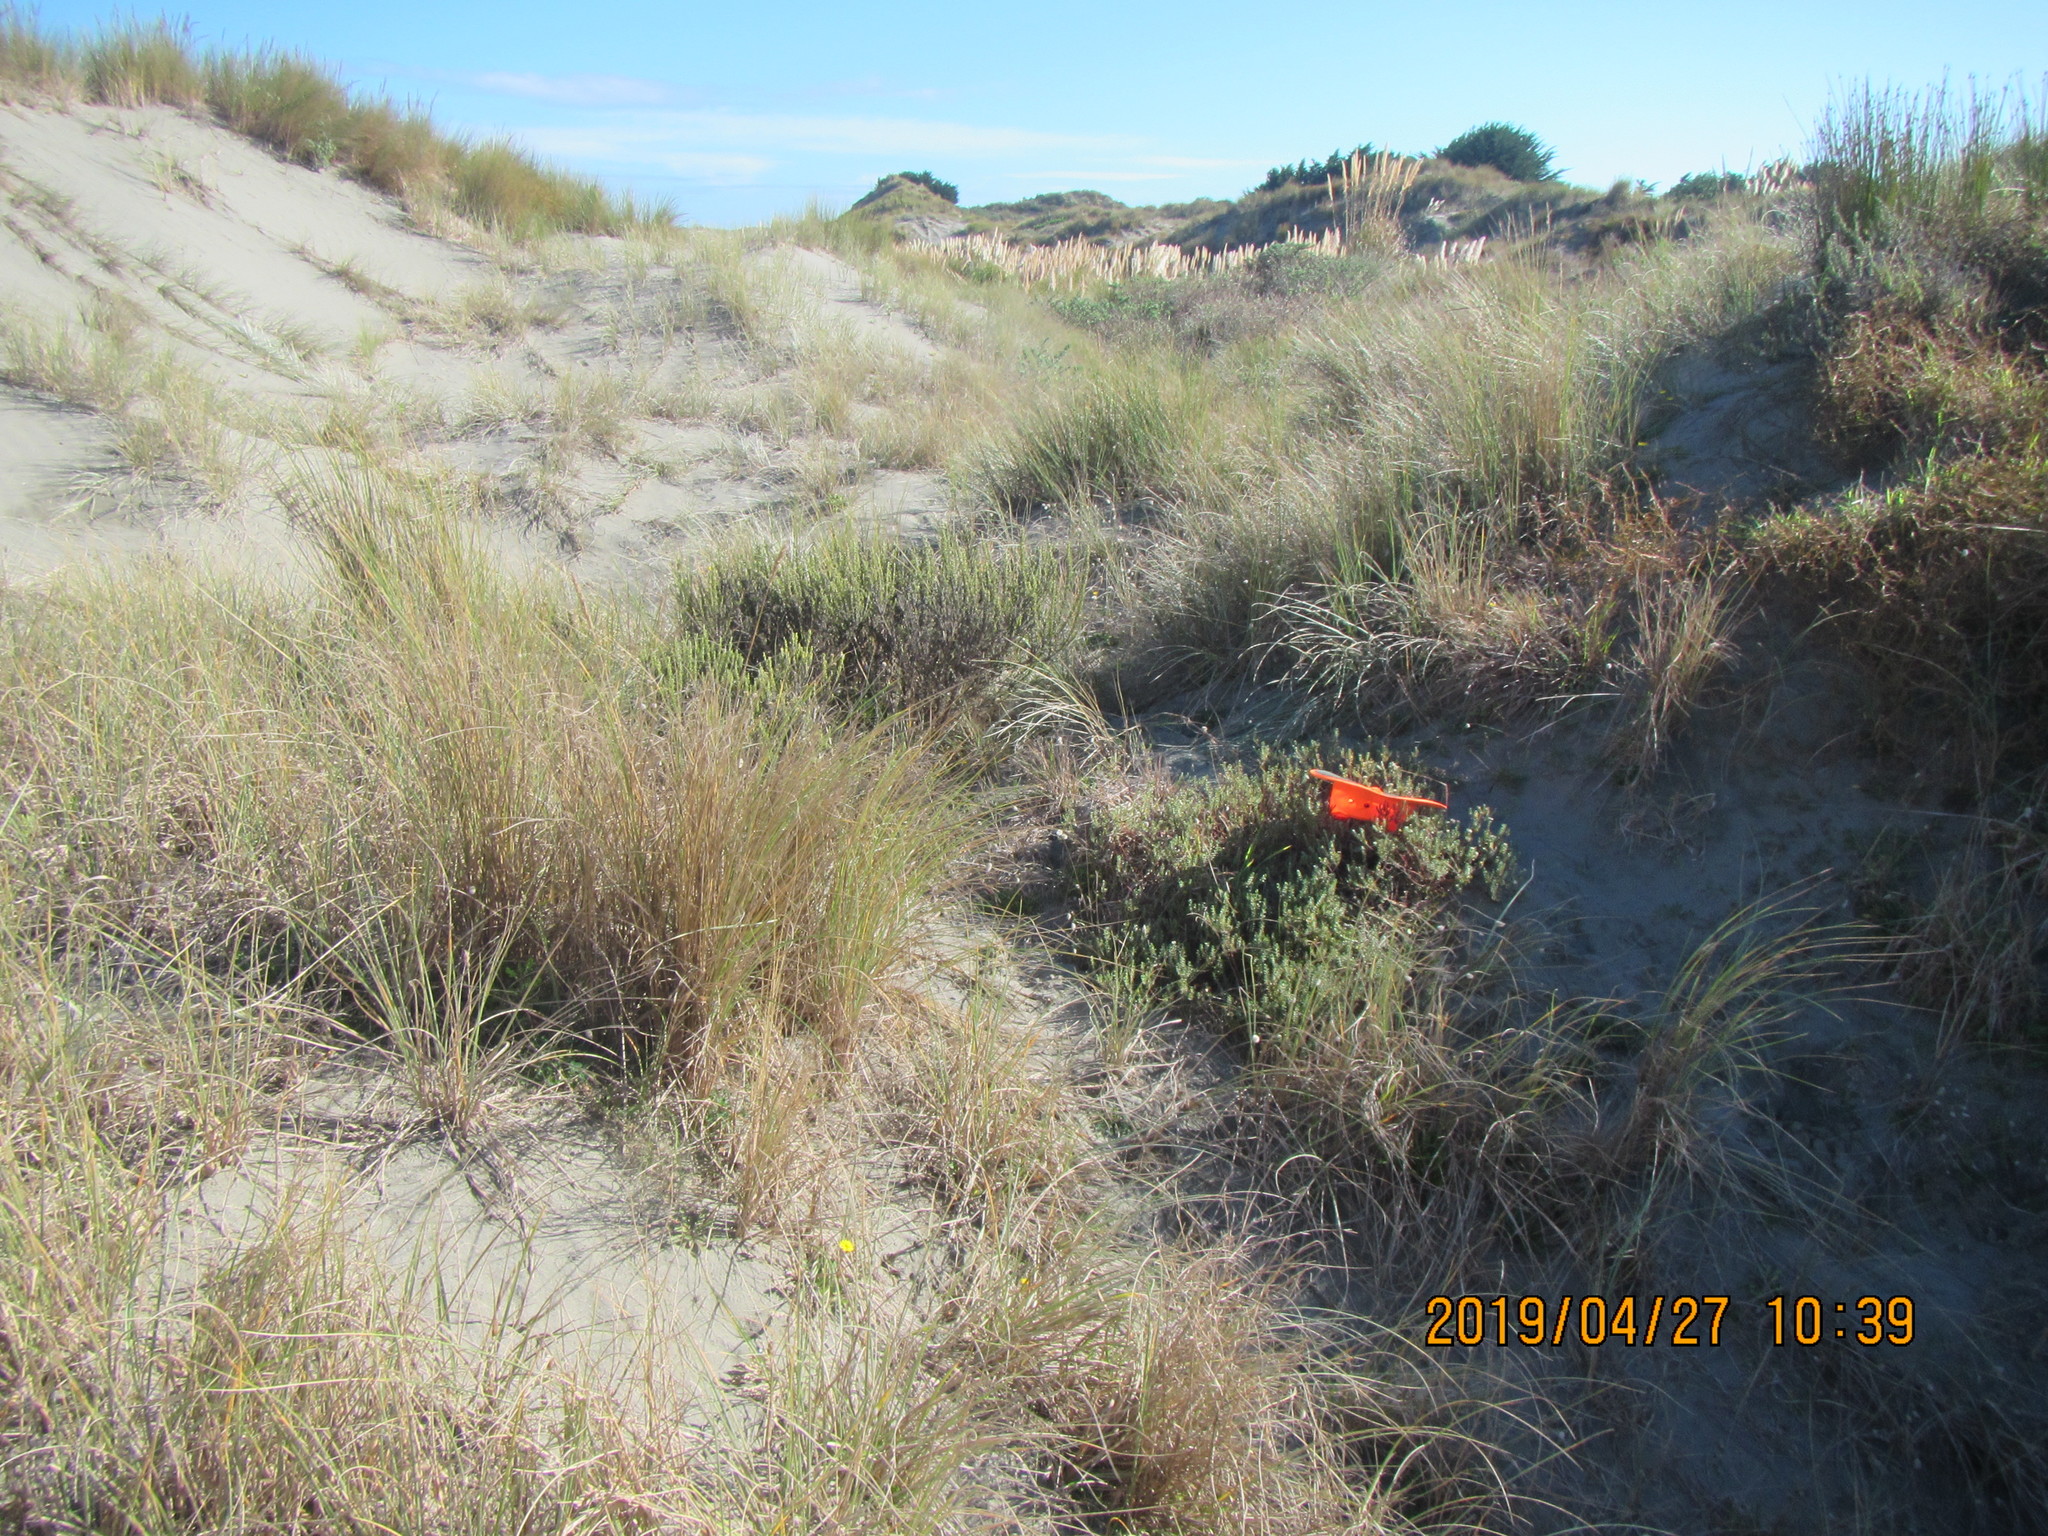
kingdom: Plantae
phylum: Tracheophyta
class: Magnoliopsida
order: Malvales
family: Thymelaeaceae
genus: Pimelea
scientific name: Pimelea villosa
